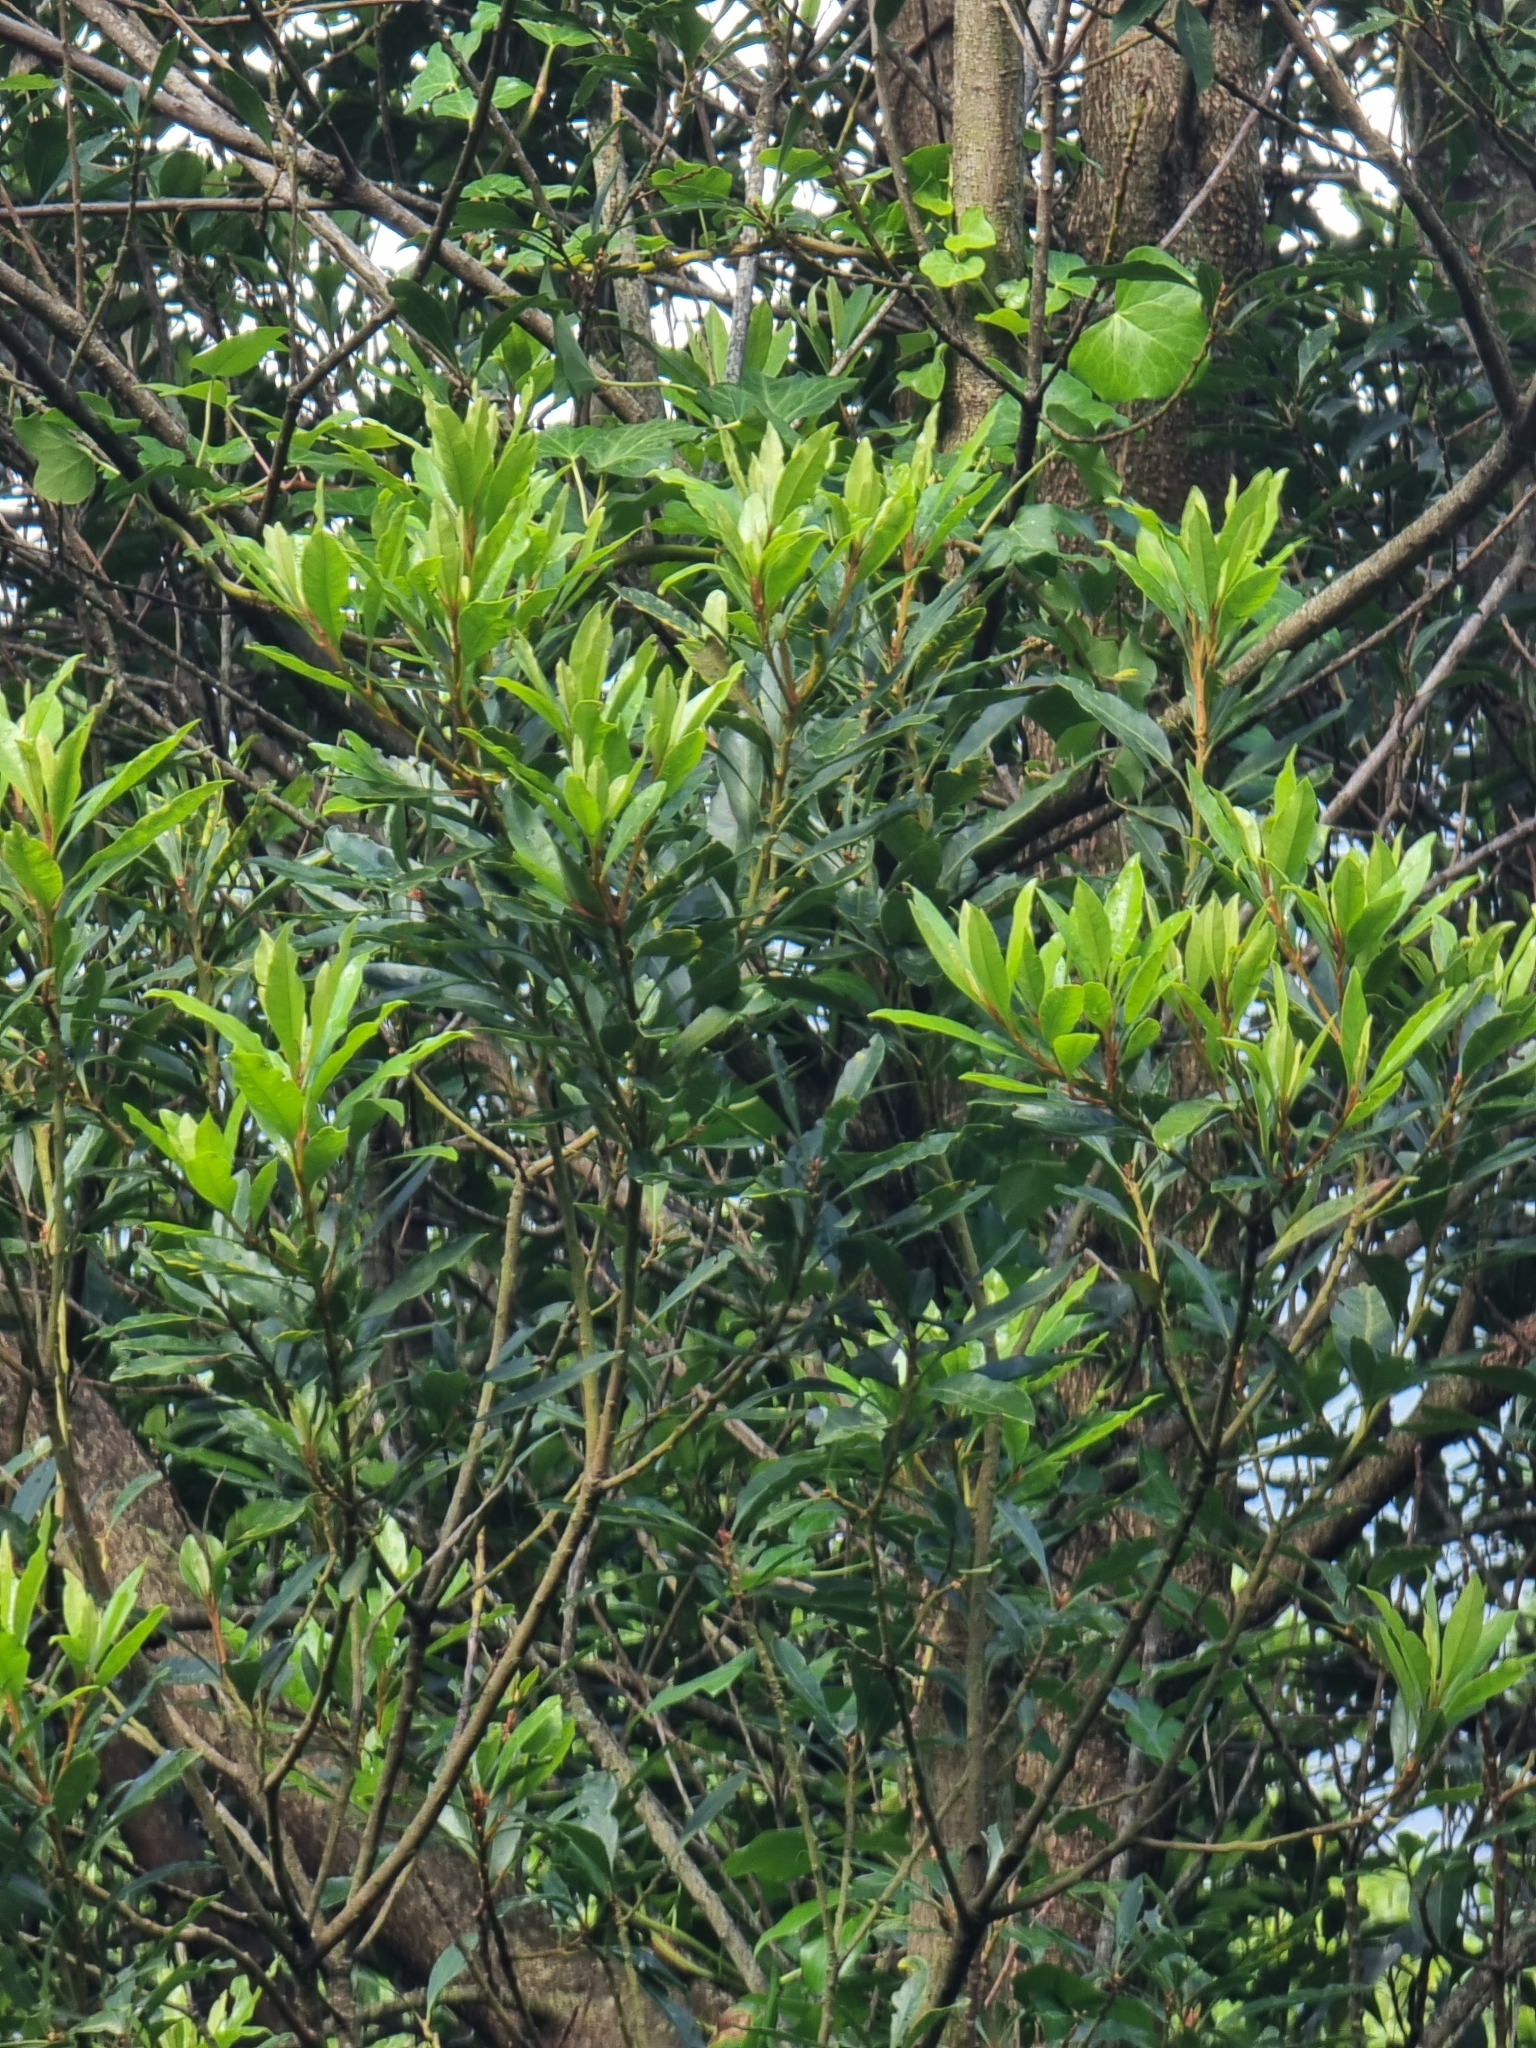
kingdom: Plantae
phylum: Tracheophyta
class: Magnoliopsida
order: Fagales
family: Myricaceae
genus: Morella
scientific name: Morella faya
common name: Firetree
